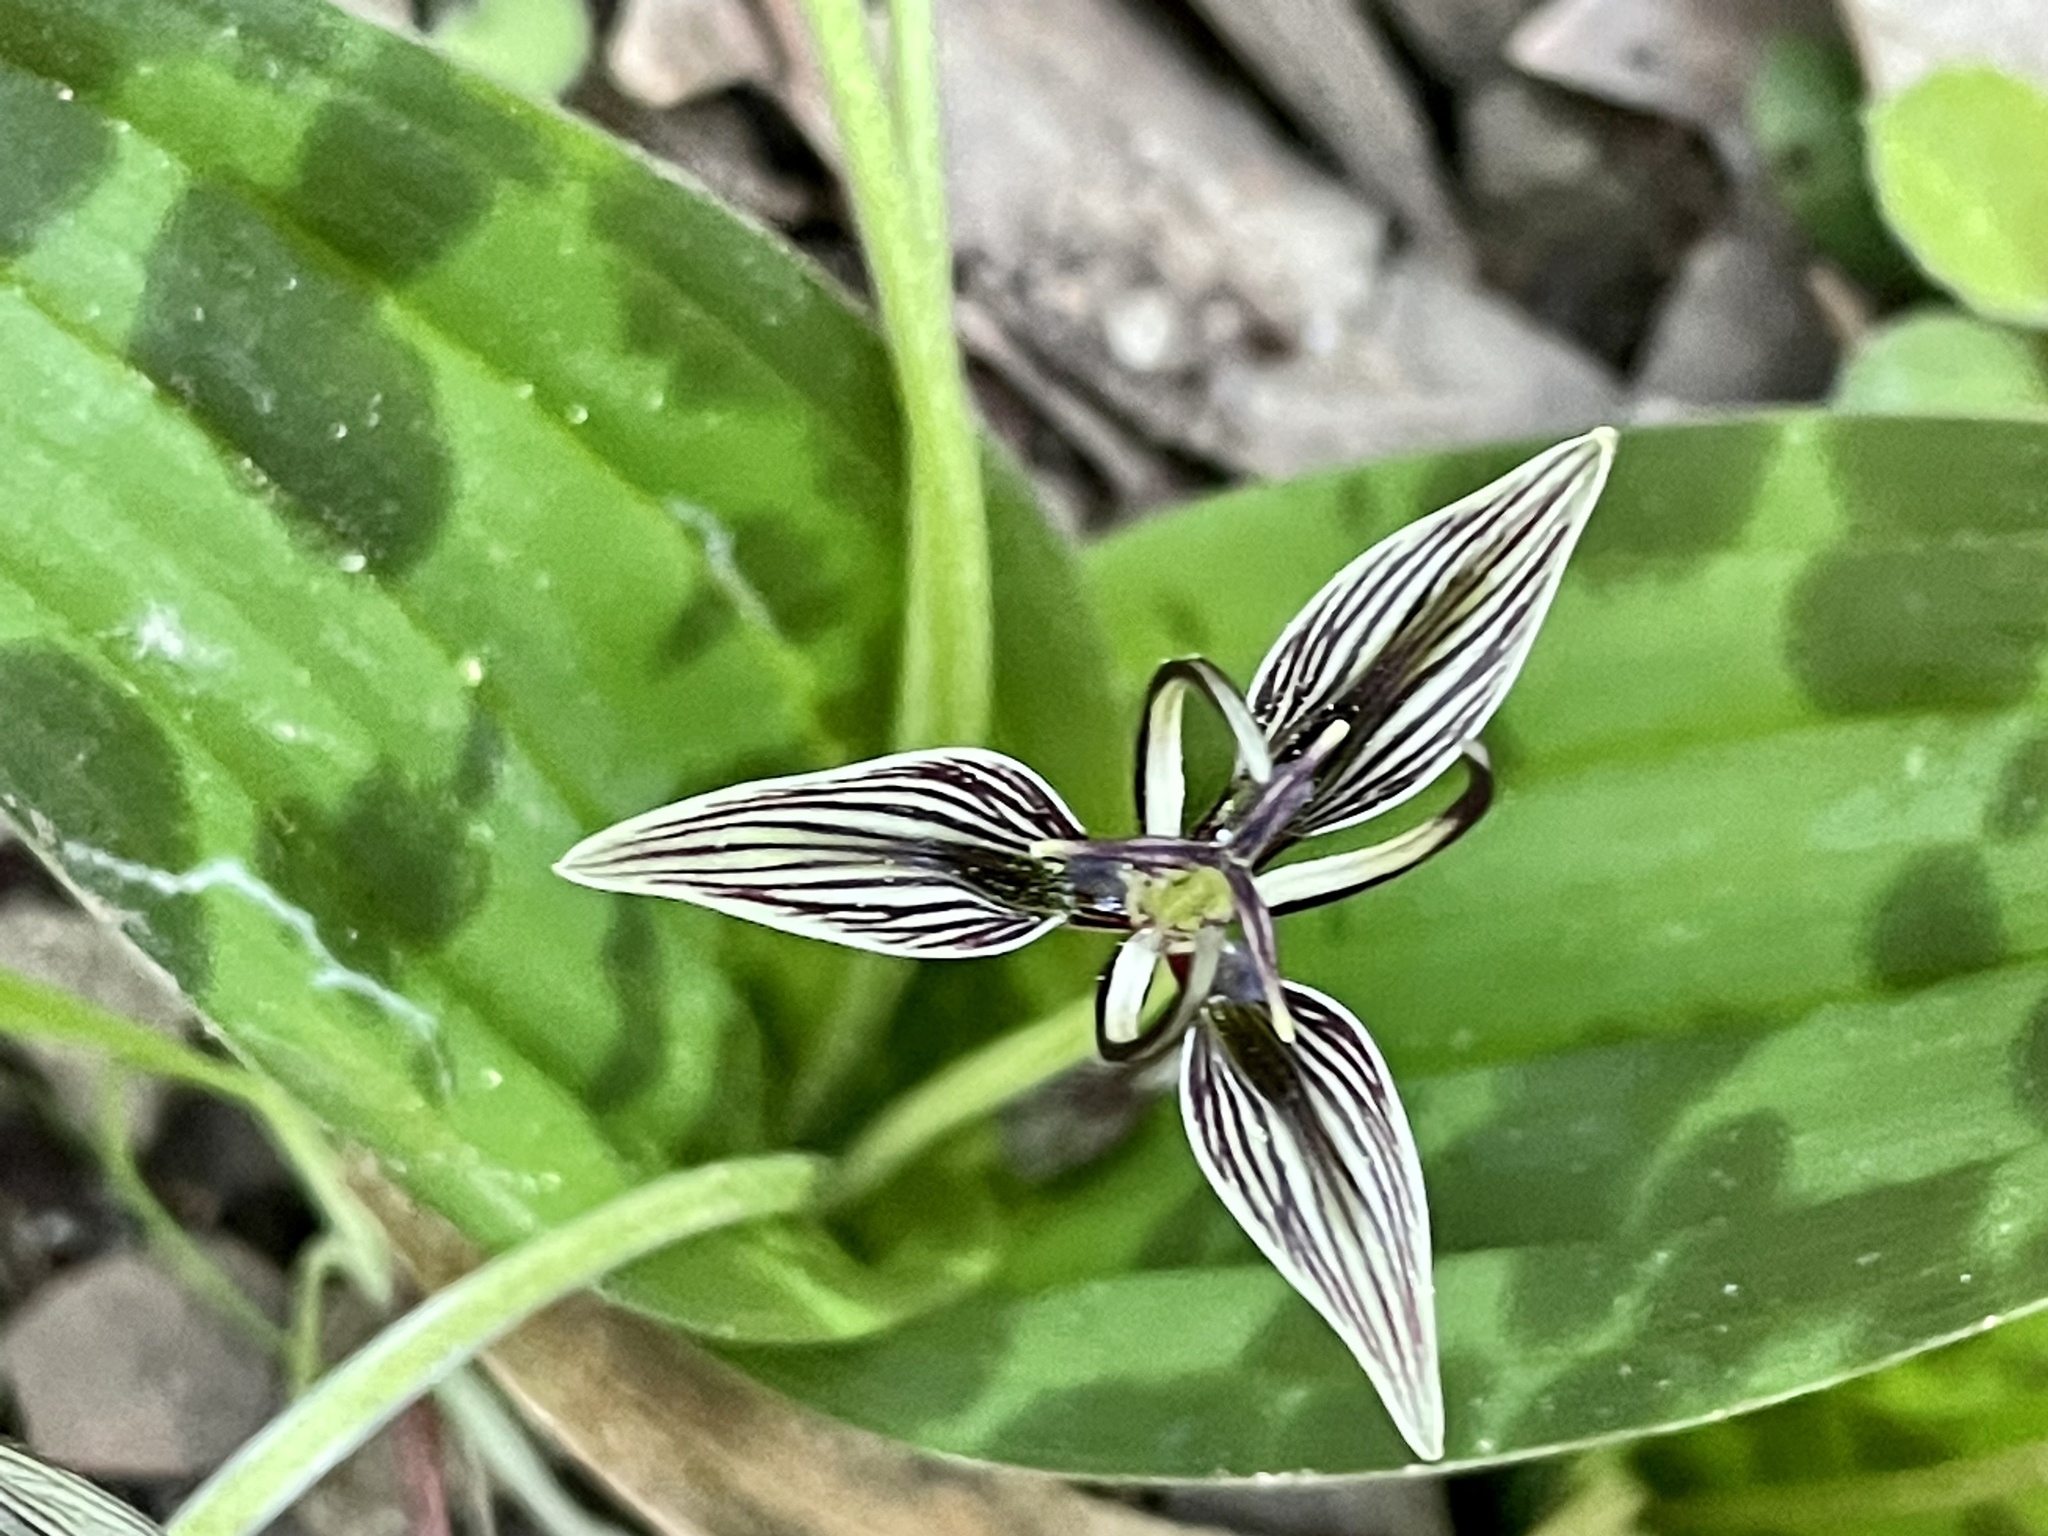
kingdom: Plantae
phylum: Tracheophyta
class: Liliopsida
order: Liliales
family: Liliaceae
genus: Scoliopus
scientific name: Scoliopus bigelovii
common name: Foetid adder's-tongue
